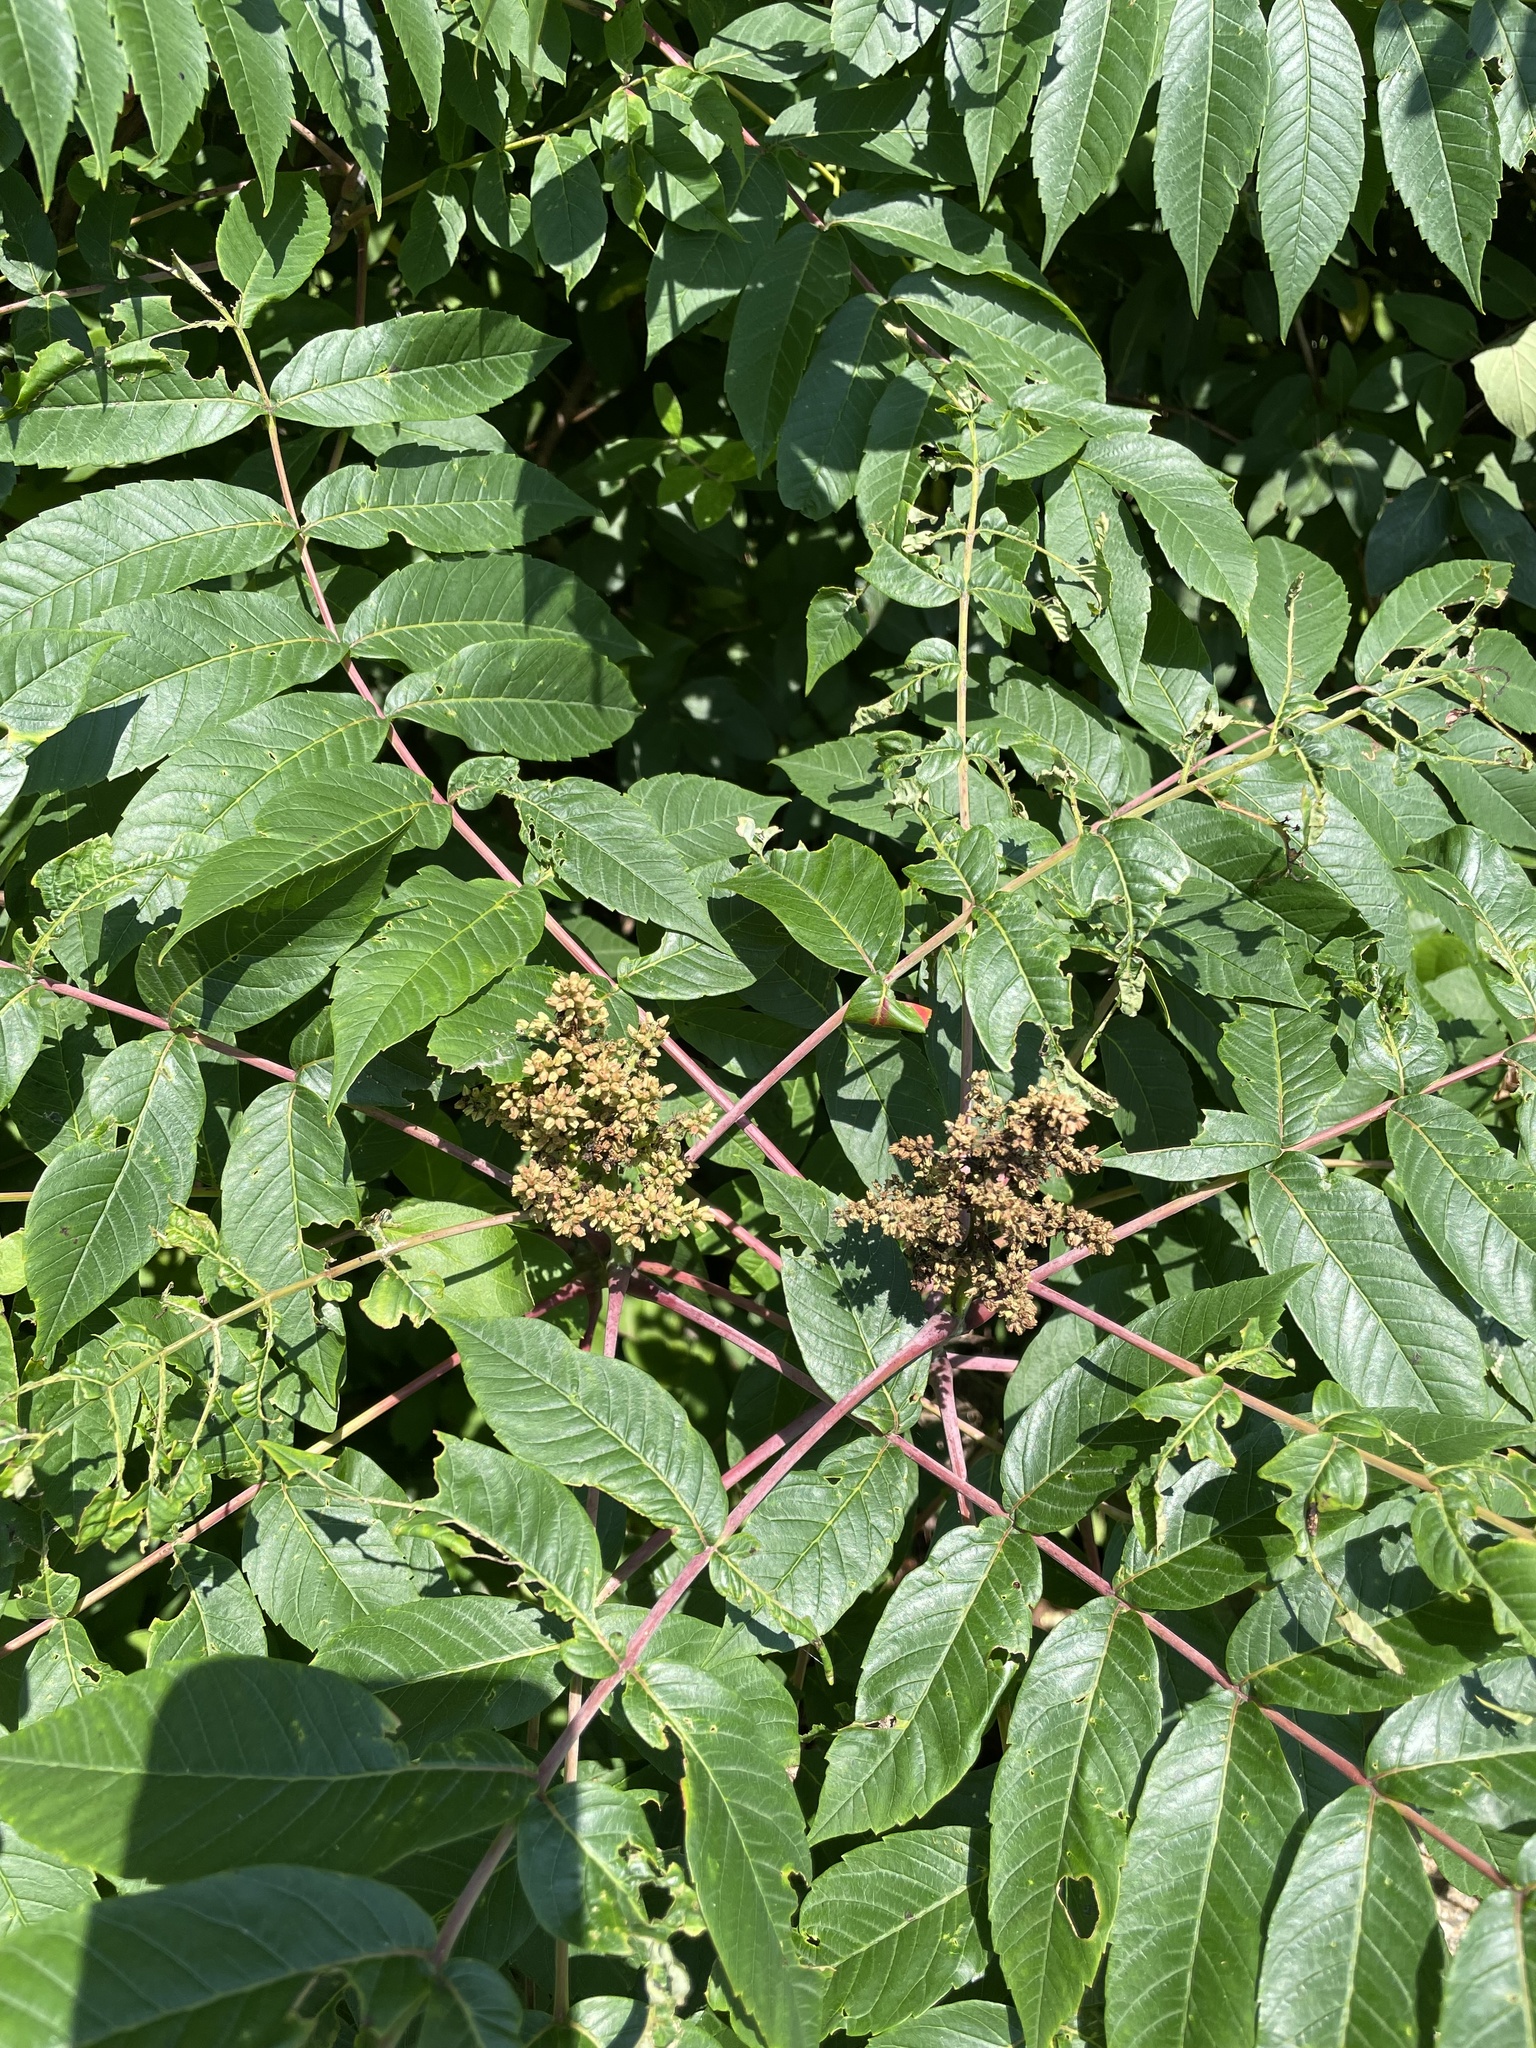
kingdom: Plantae
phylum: Tracheophyta
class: Magnoliopsida
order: Sapindales
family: Anacardiaceae
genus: Rhus
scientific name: Rhus glabra
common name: Scarlet sumac
